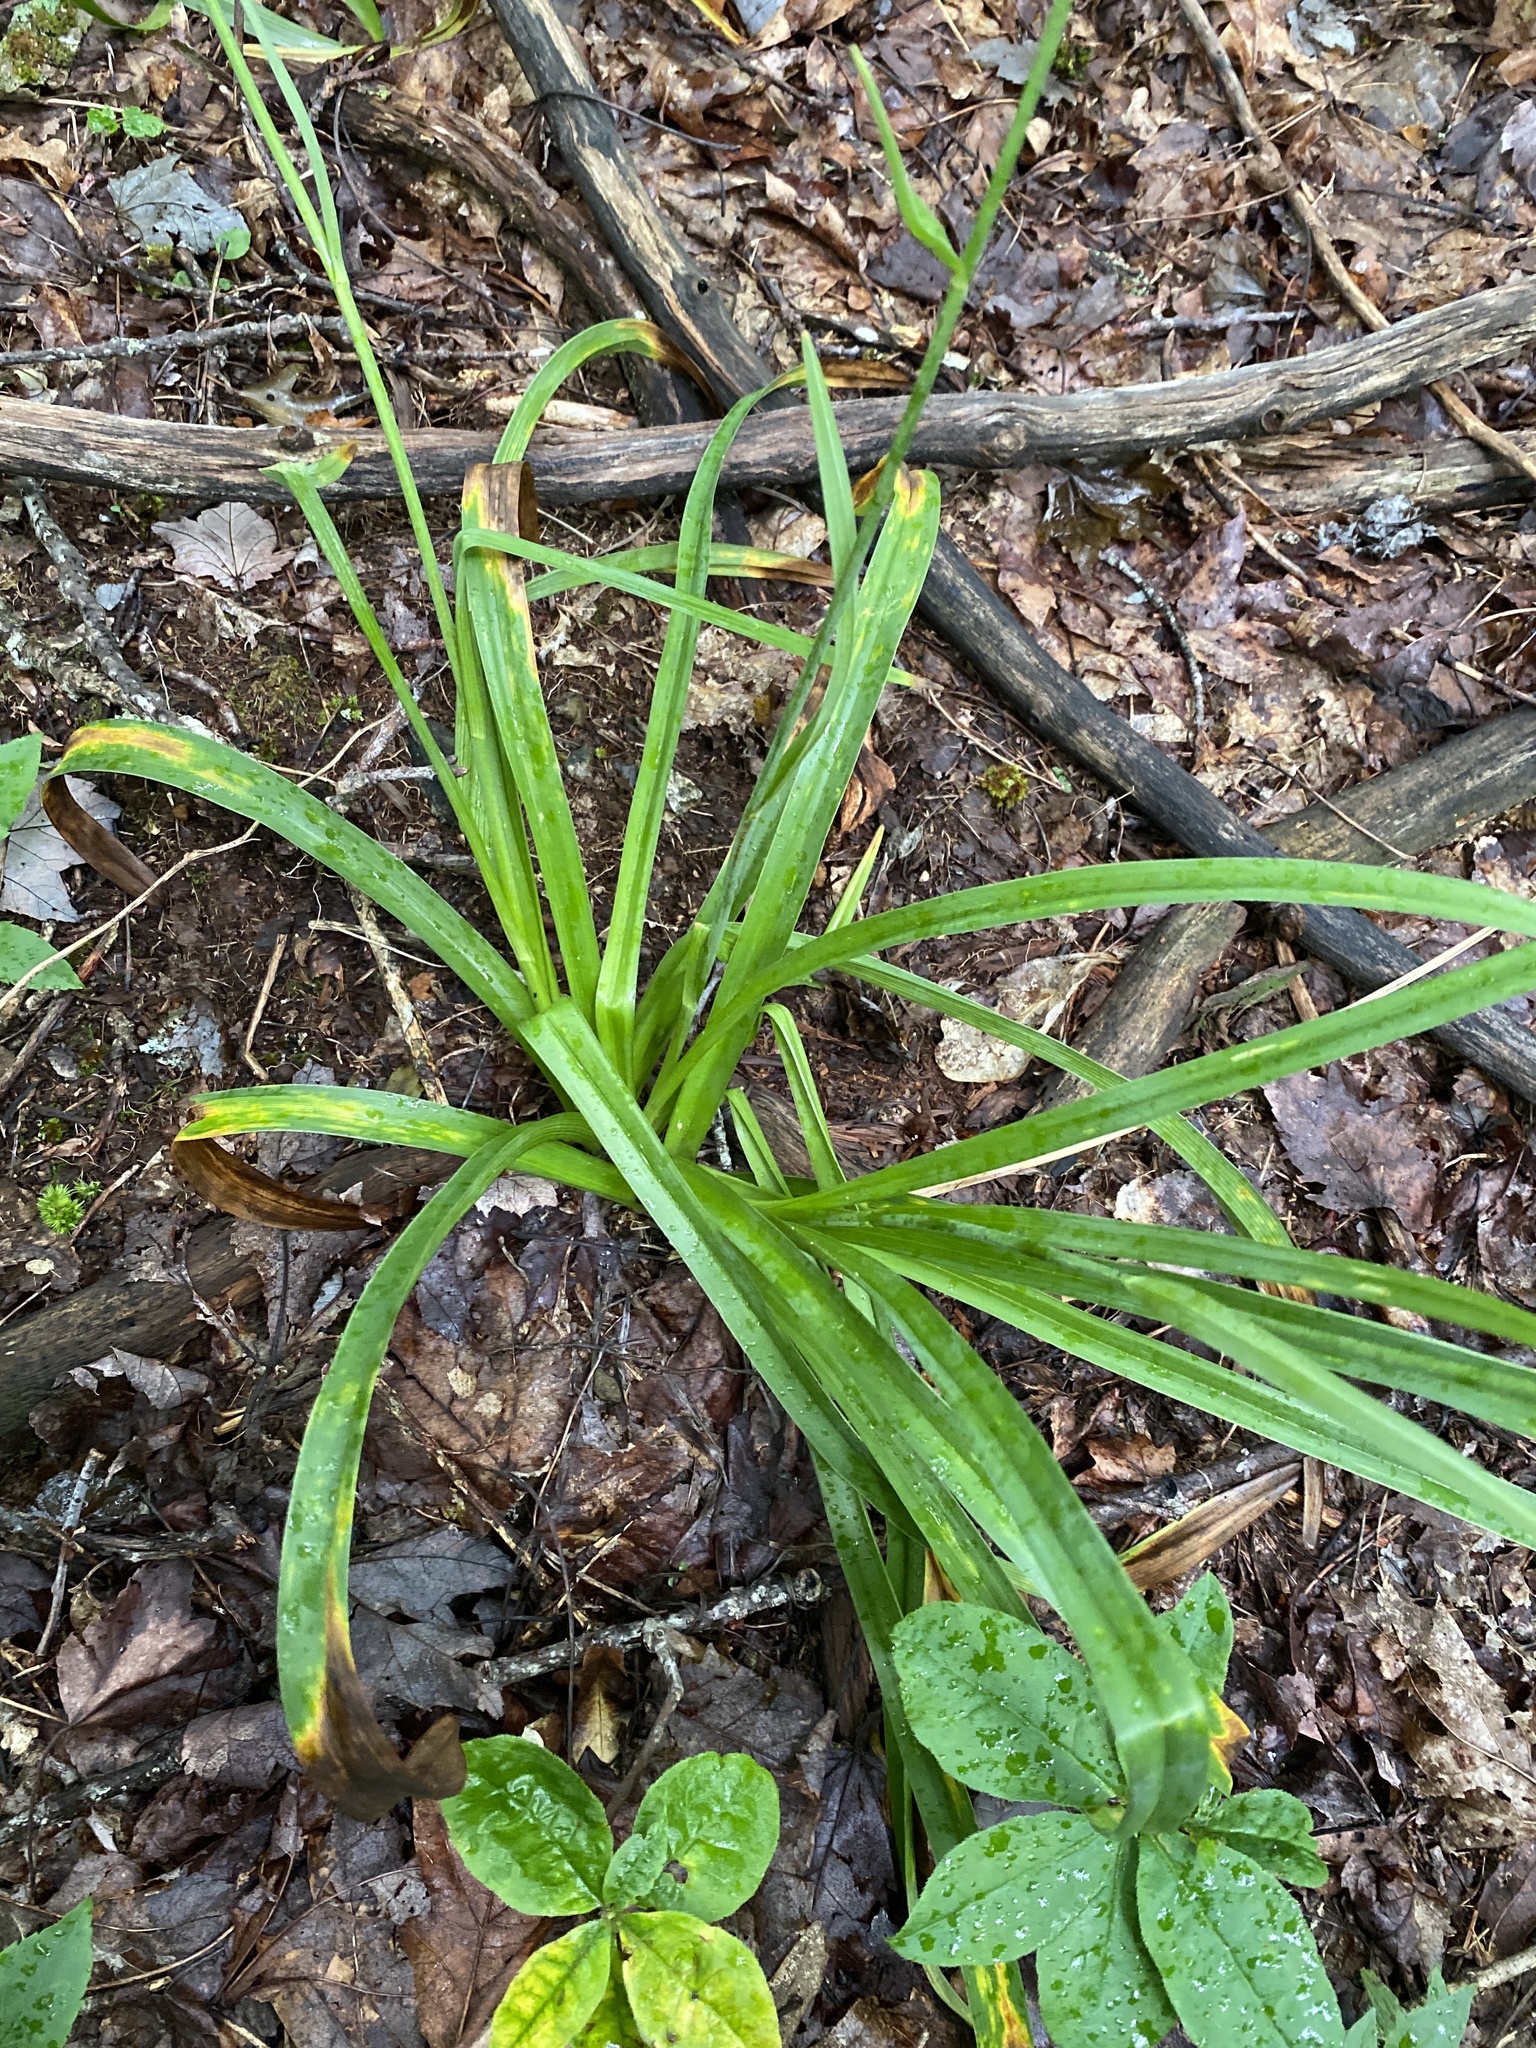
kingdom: Plantae
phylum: Tracheophyta
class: Liliopsida
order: Liliales
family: Melanthiaceae
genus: Amianthium
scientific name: Amianthium muscitoxicum
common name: Fly-poison
